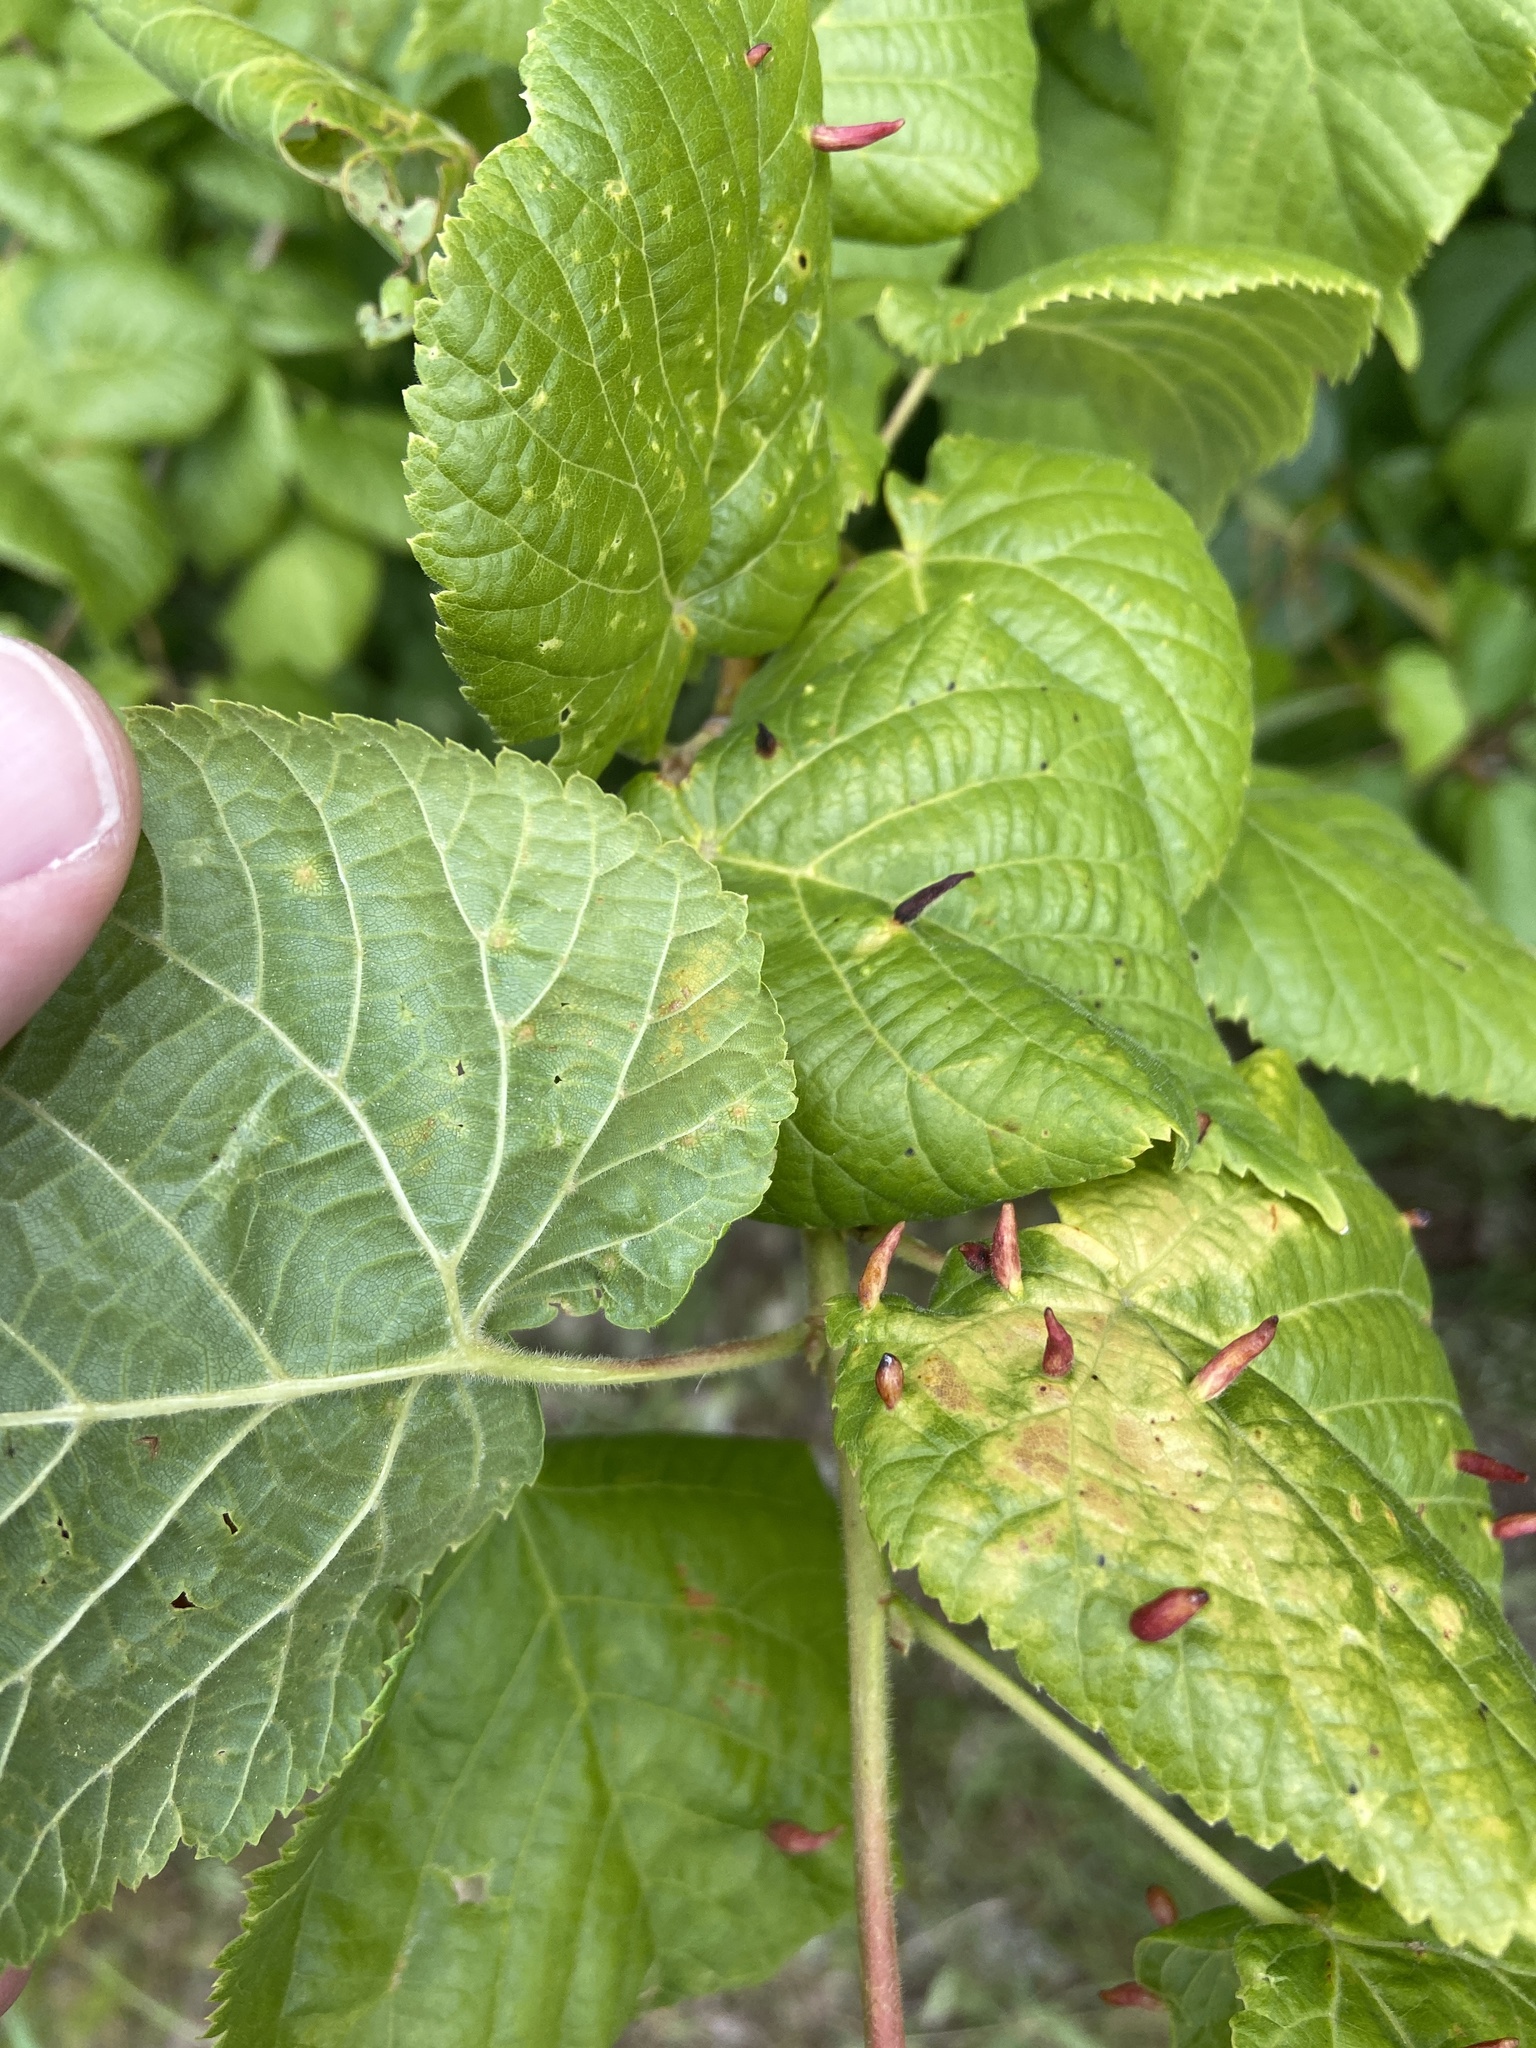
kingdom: Animalia
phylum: Arthropoda
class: Arachnida
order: Trombidiformes
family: Eriophyidae
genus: Eriophyes
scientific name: Eriophyes tiliae
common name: Red nail gall mite
